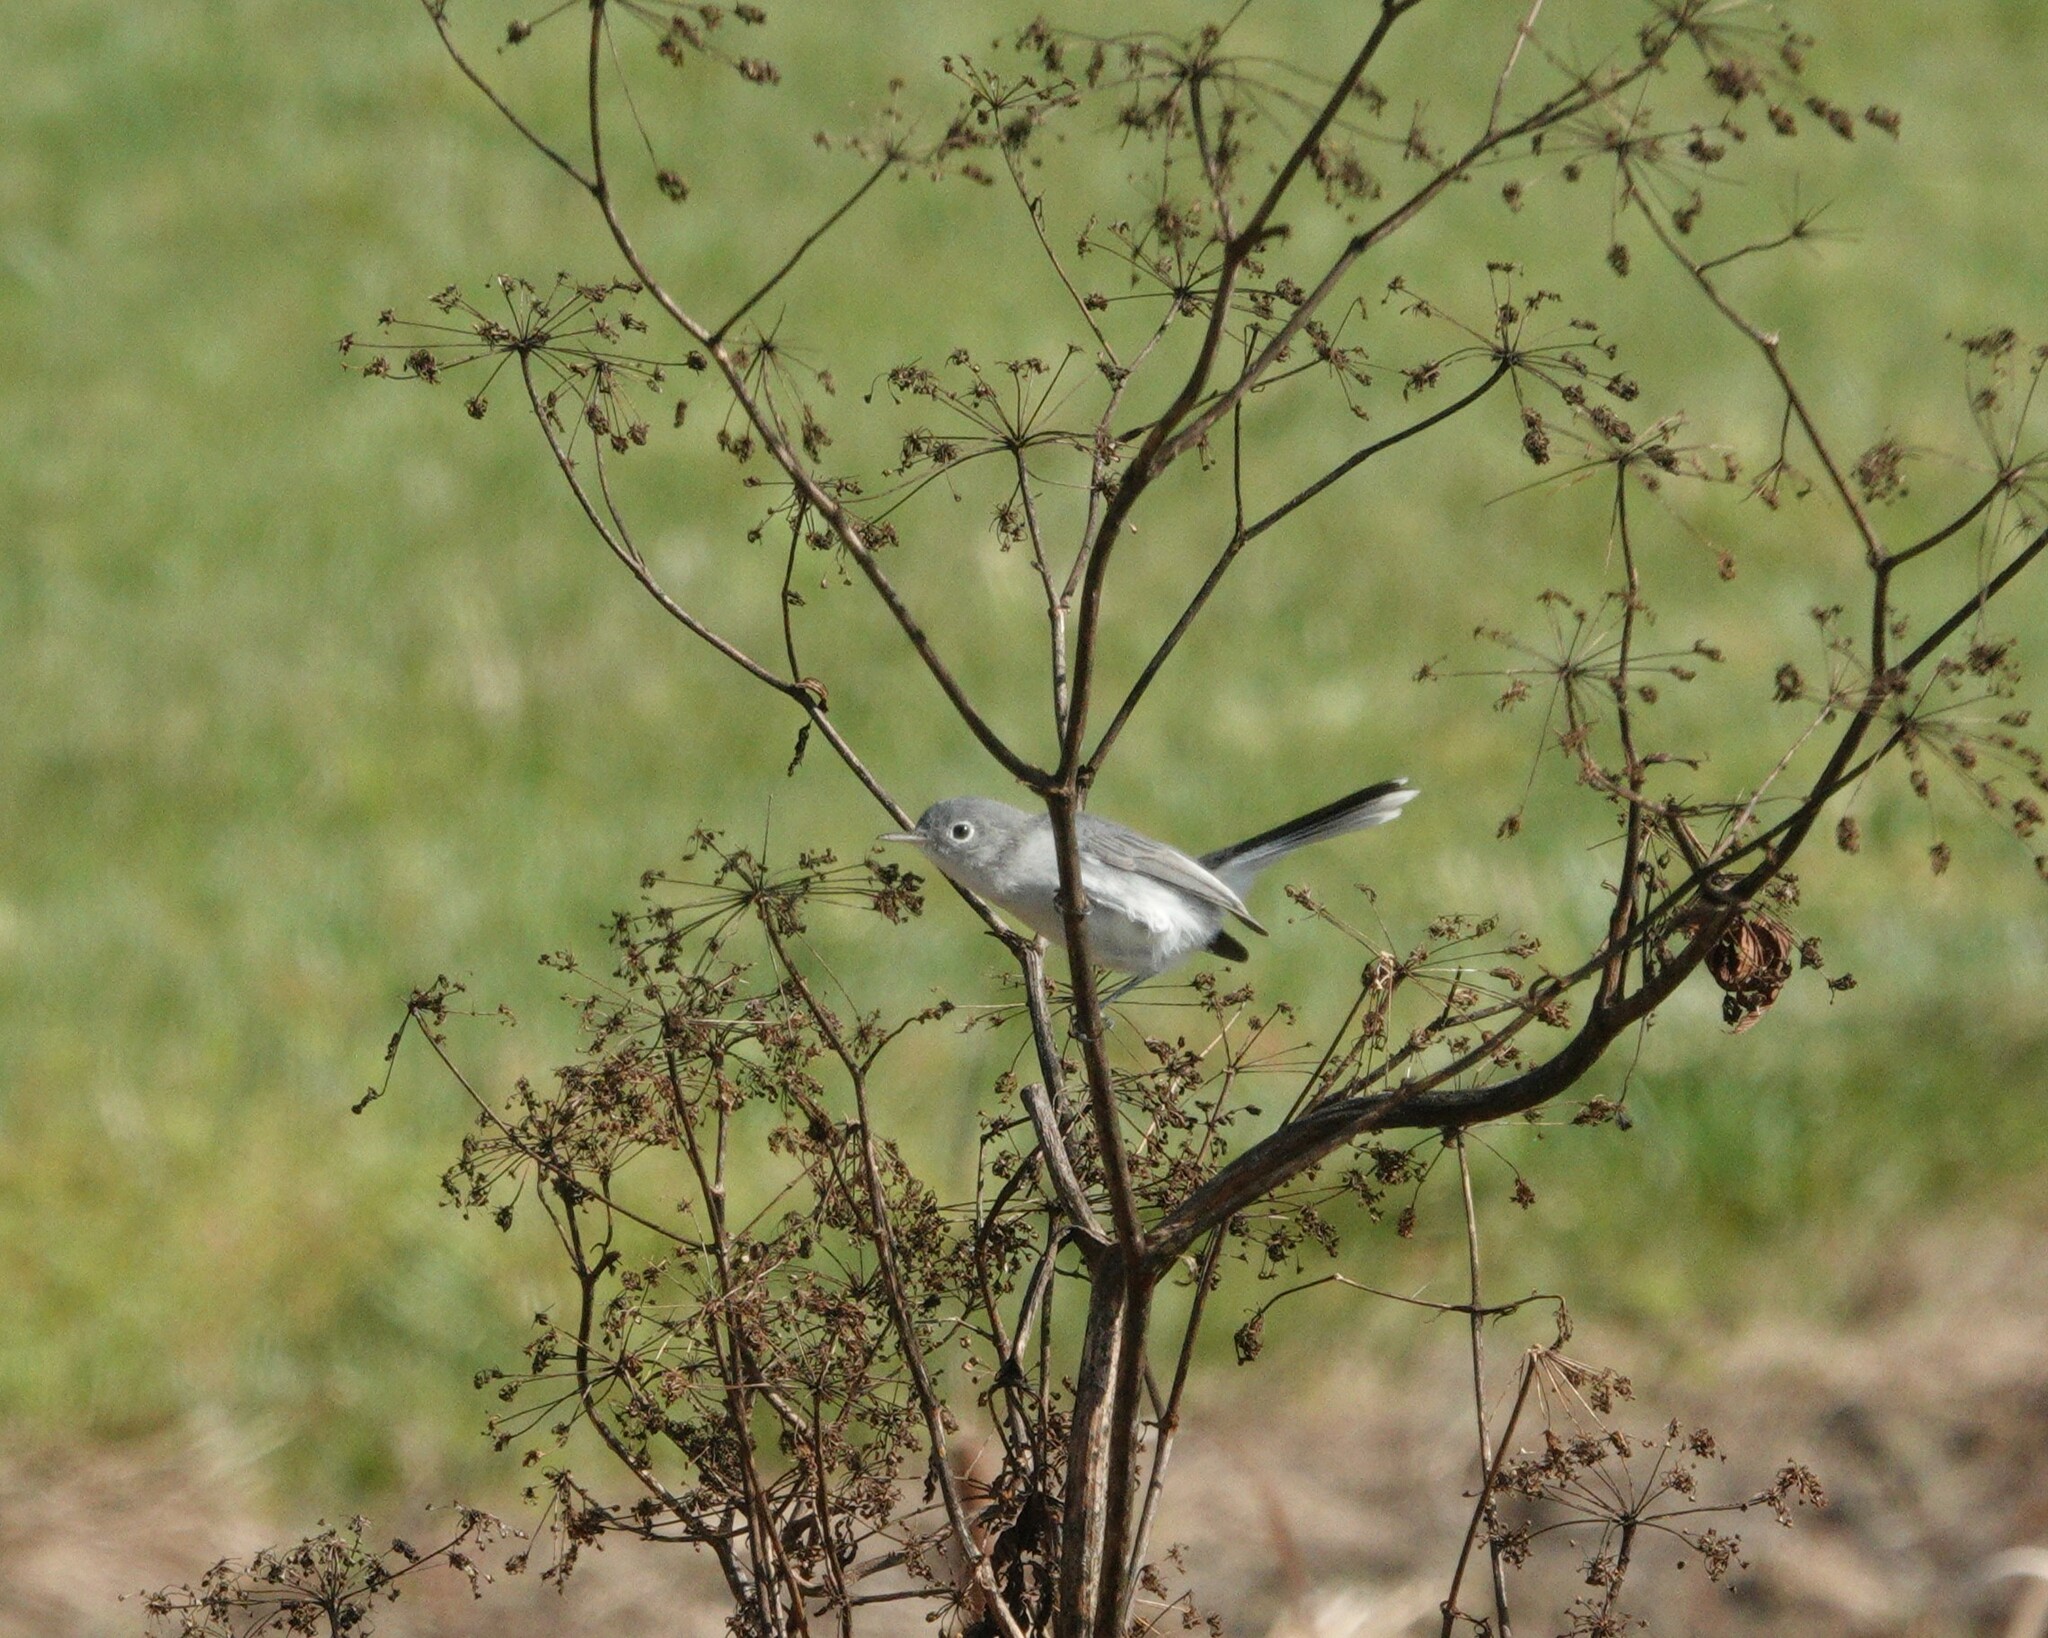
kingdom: Animalia
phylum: Chordata
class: Aves
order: Passeriformes
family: Polioptilidae
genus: Polioptila
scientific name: Polioptila caerulea
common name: Blue-gray gnatcatcher
